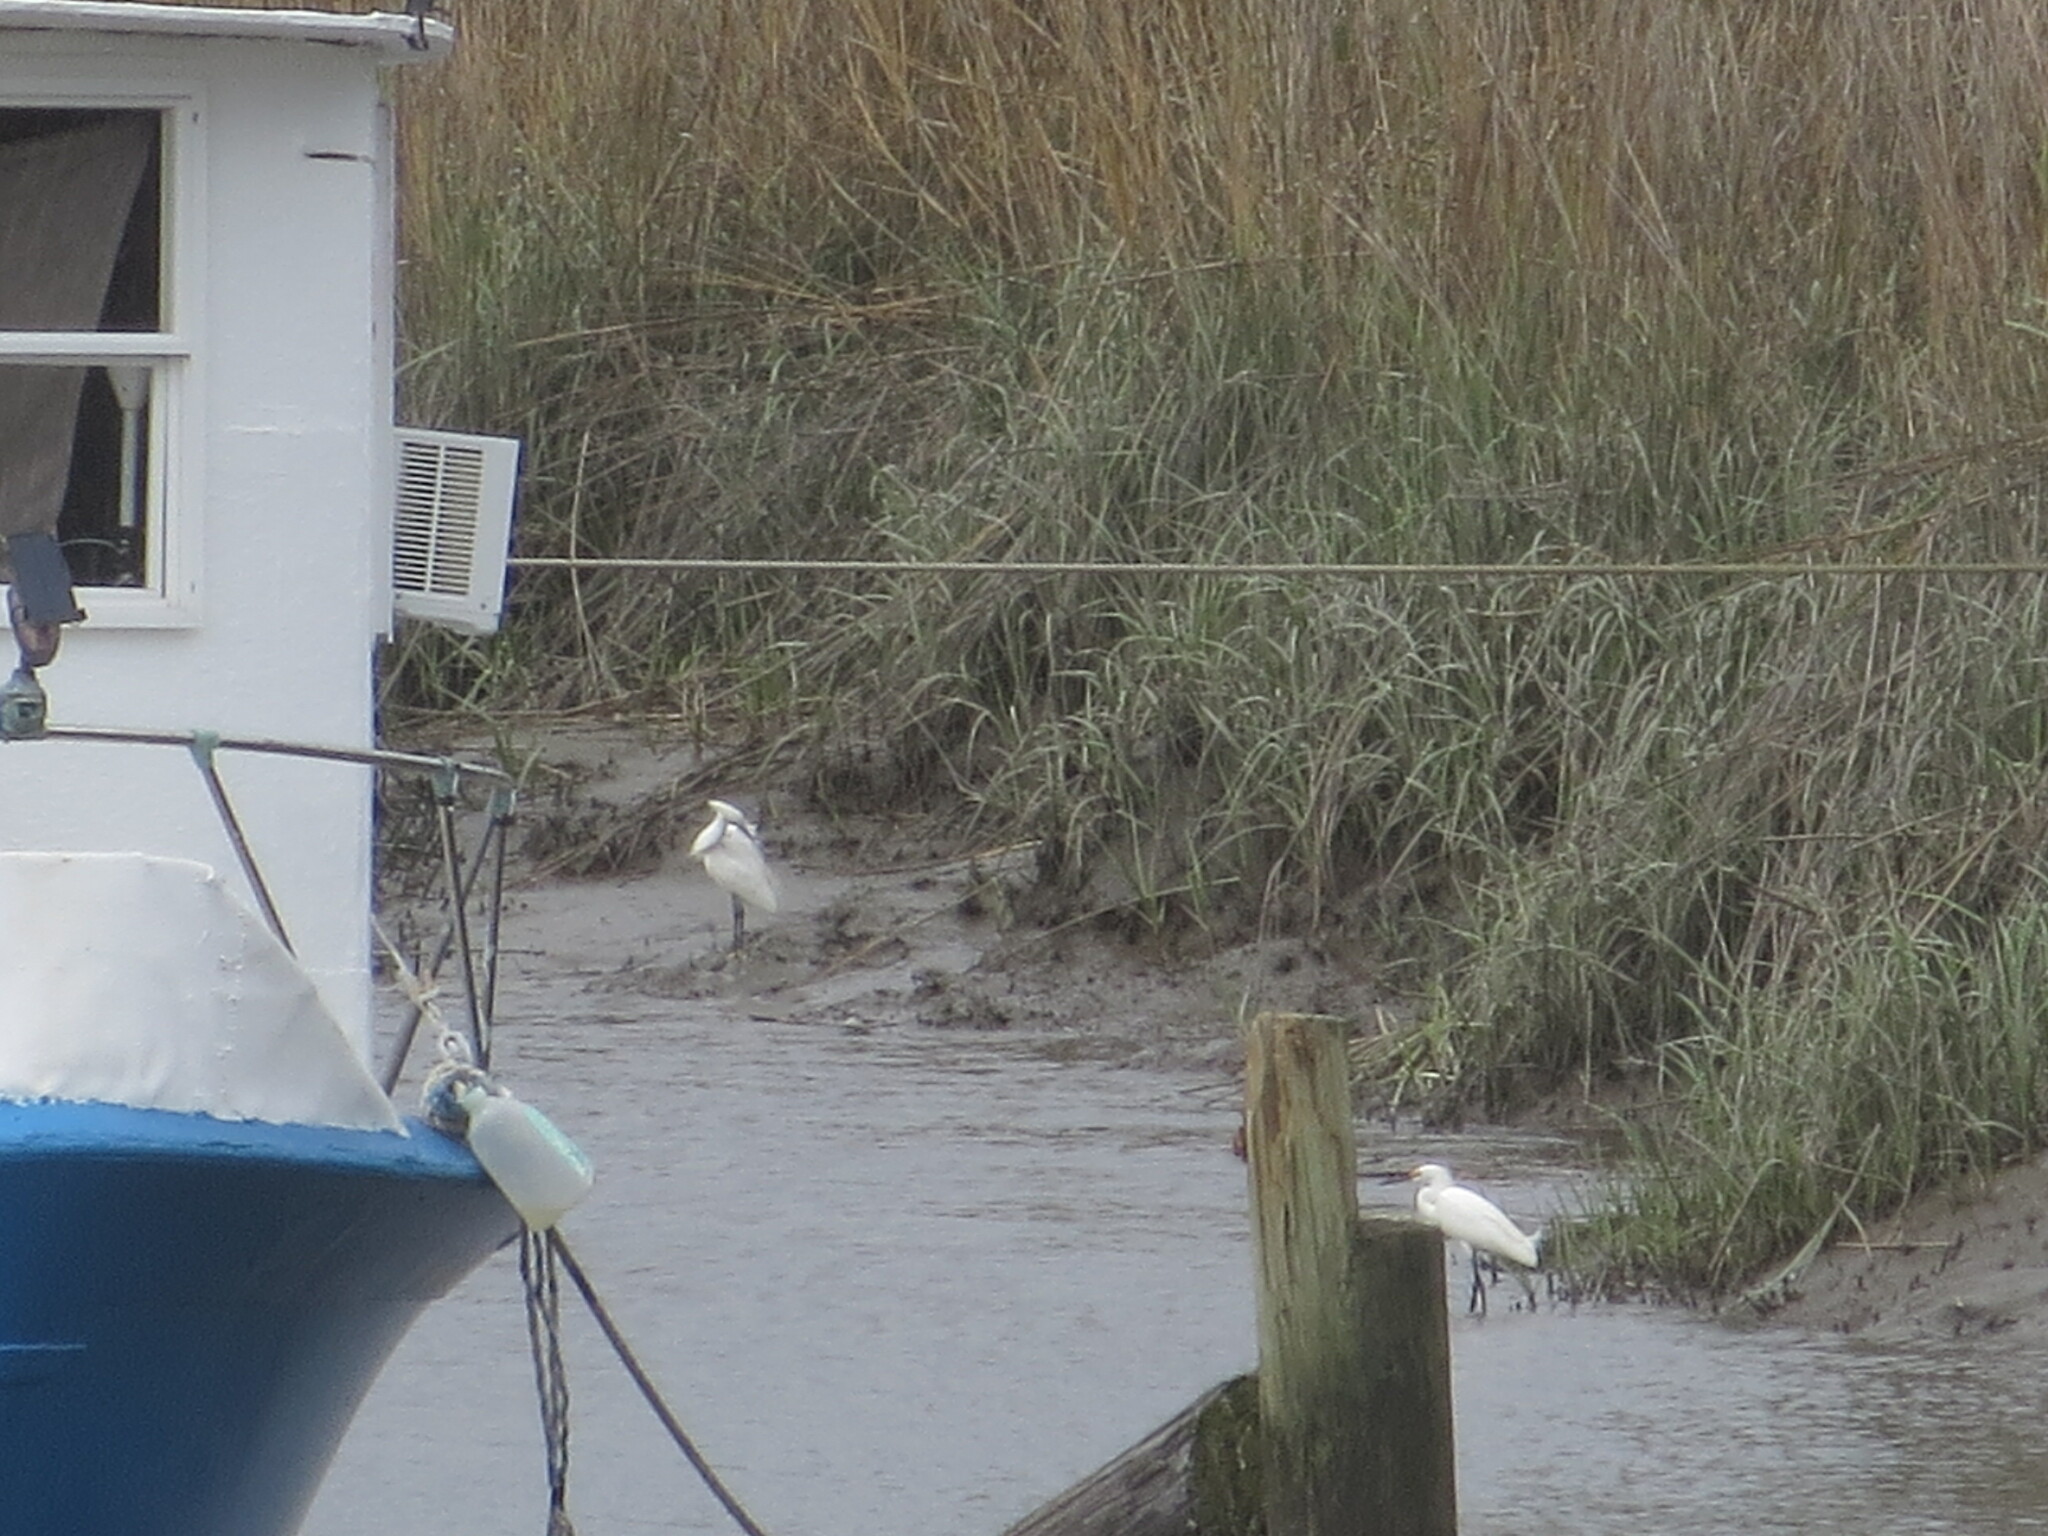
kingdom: Animalia
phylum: Chordata
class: Aves
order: Pelecaniformes
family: Ardeidae
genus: Egretta
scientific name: Egretta thula
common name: Snowy egret
